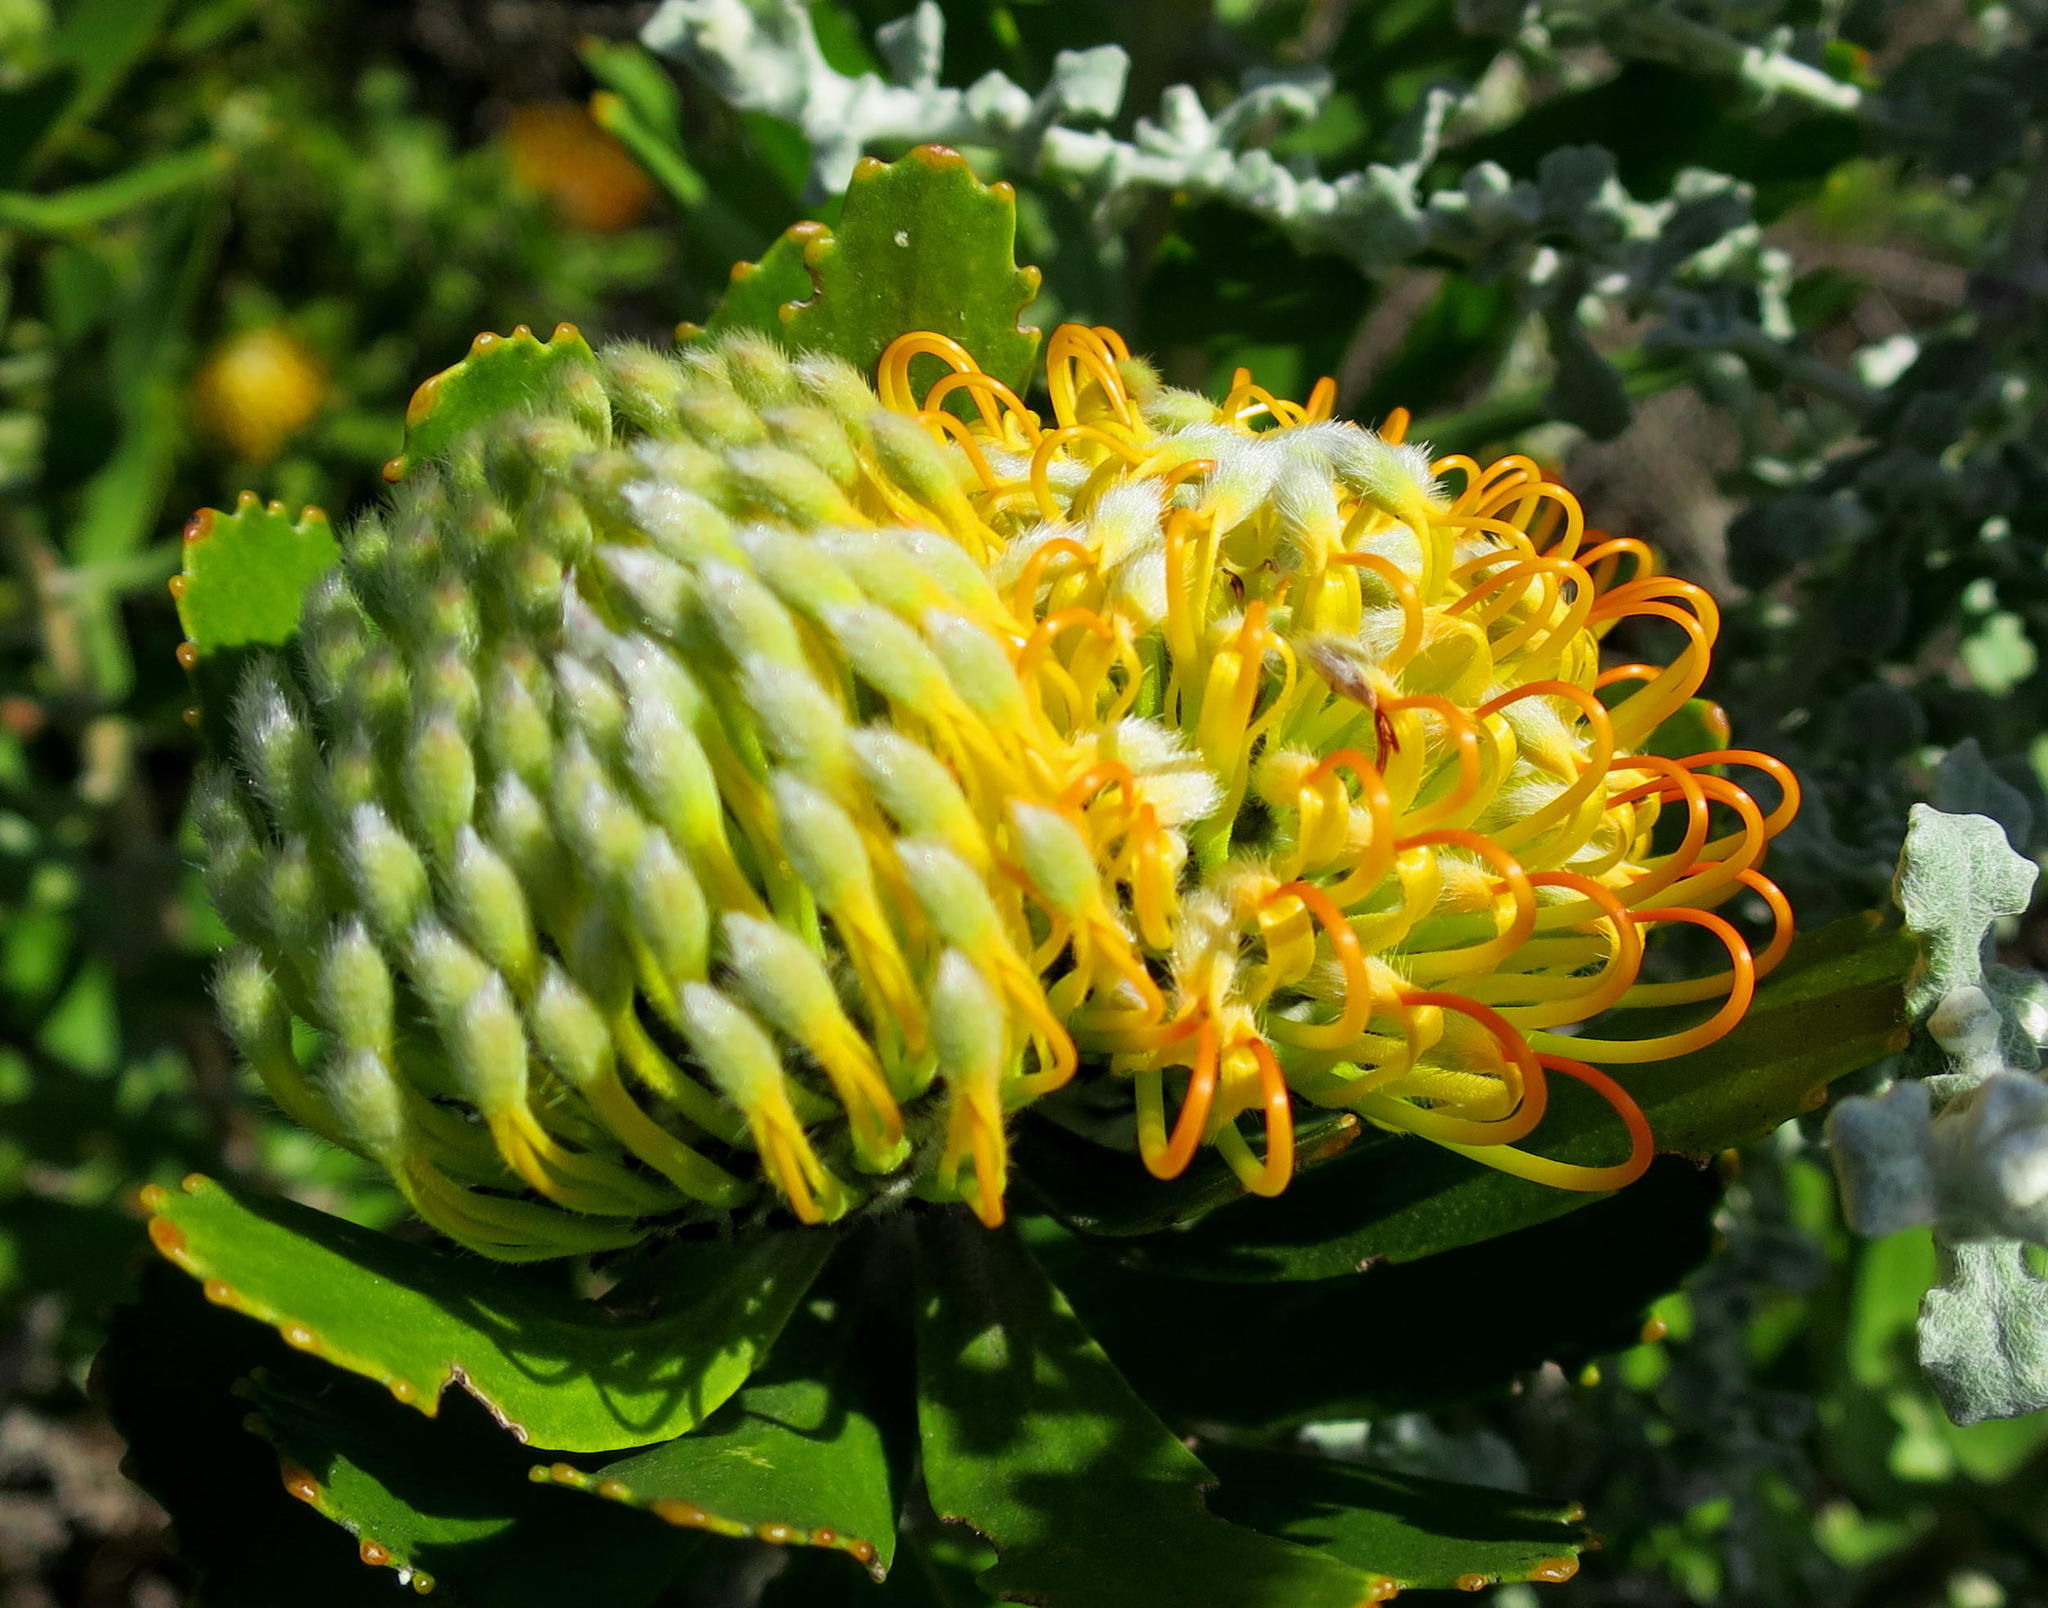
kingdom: Plantae
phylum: Tracheophyta
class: Magnoliopsida
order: Proteales
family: Proteaceae
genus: Leucospermum
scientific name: Leucospermum praecox
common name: Mossel bay pincushion
